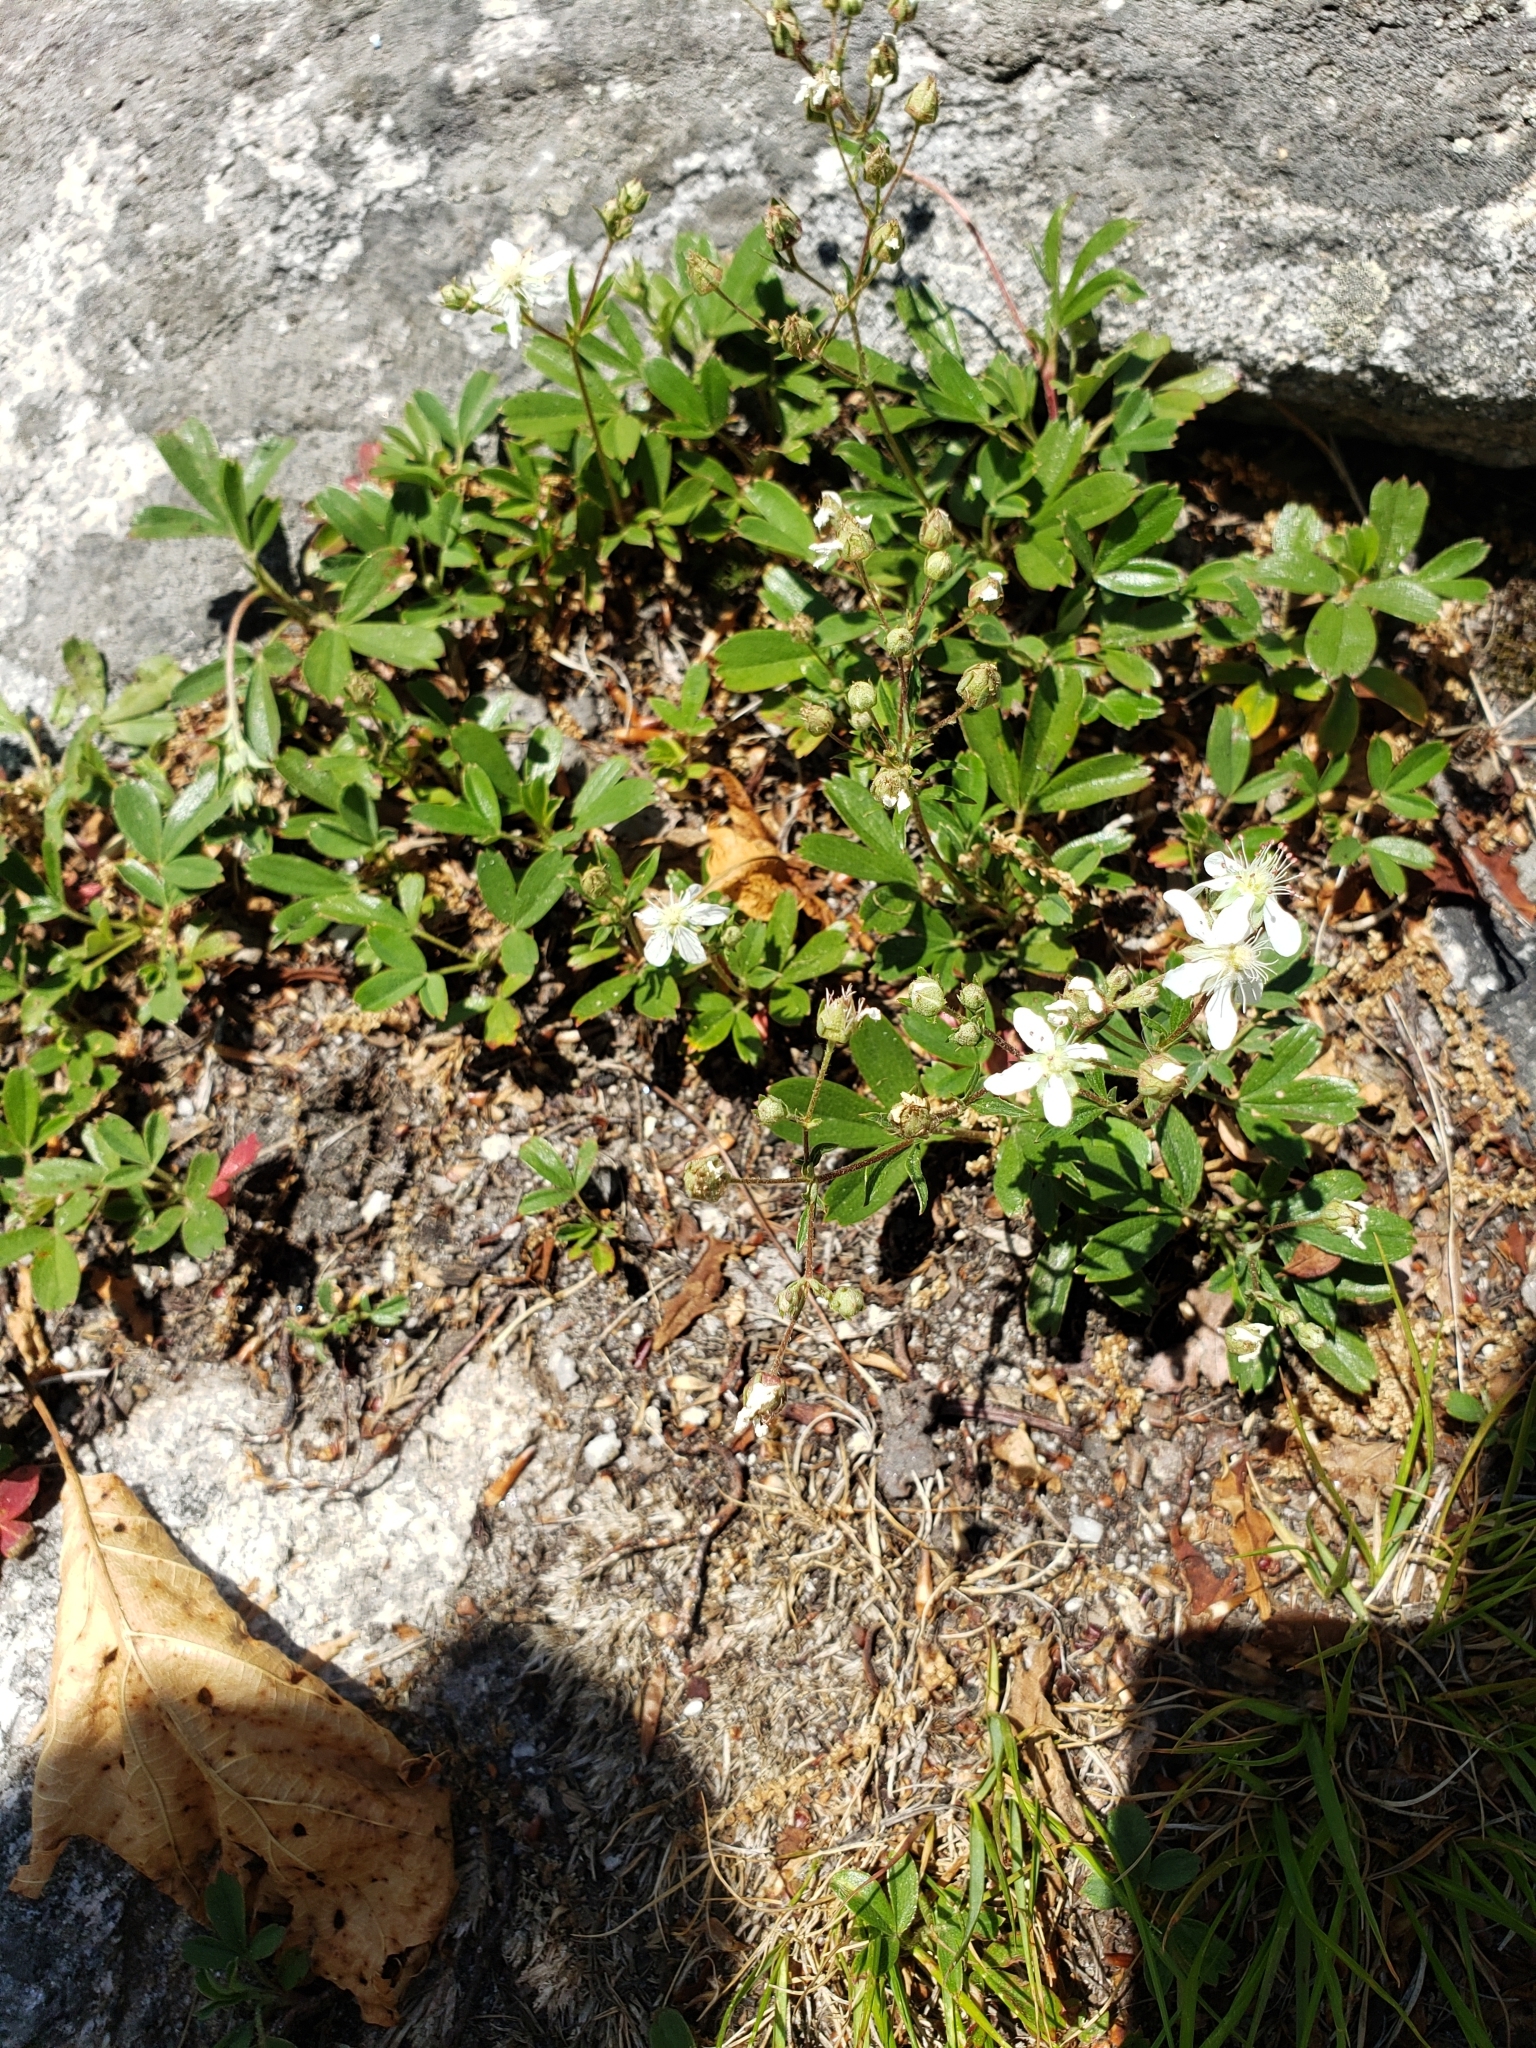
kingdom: Plantae
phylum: Tracheophyta
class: Magnoliopsida
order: Rosales
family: Rosaceae
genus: Sibbaldia
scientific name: Sibbaldia tridentata
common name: Three-toothed cinquefoil
